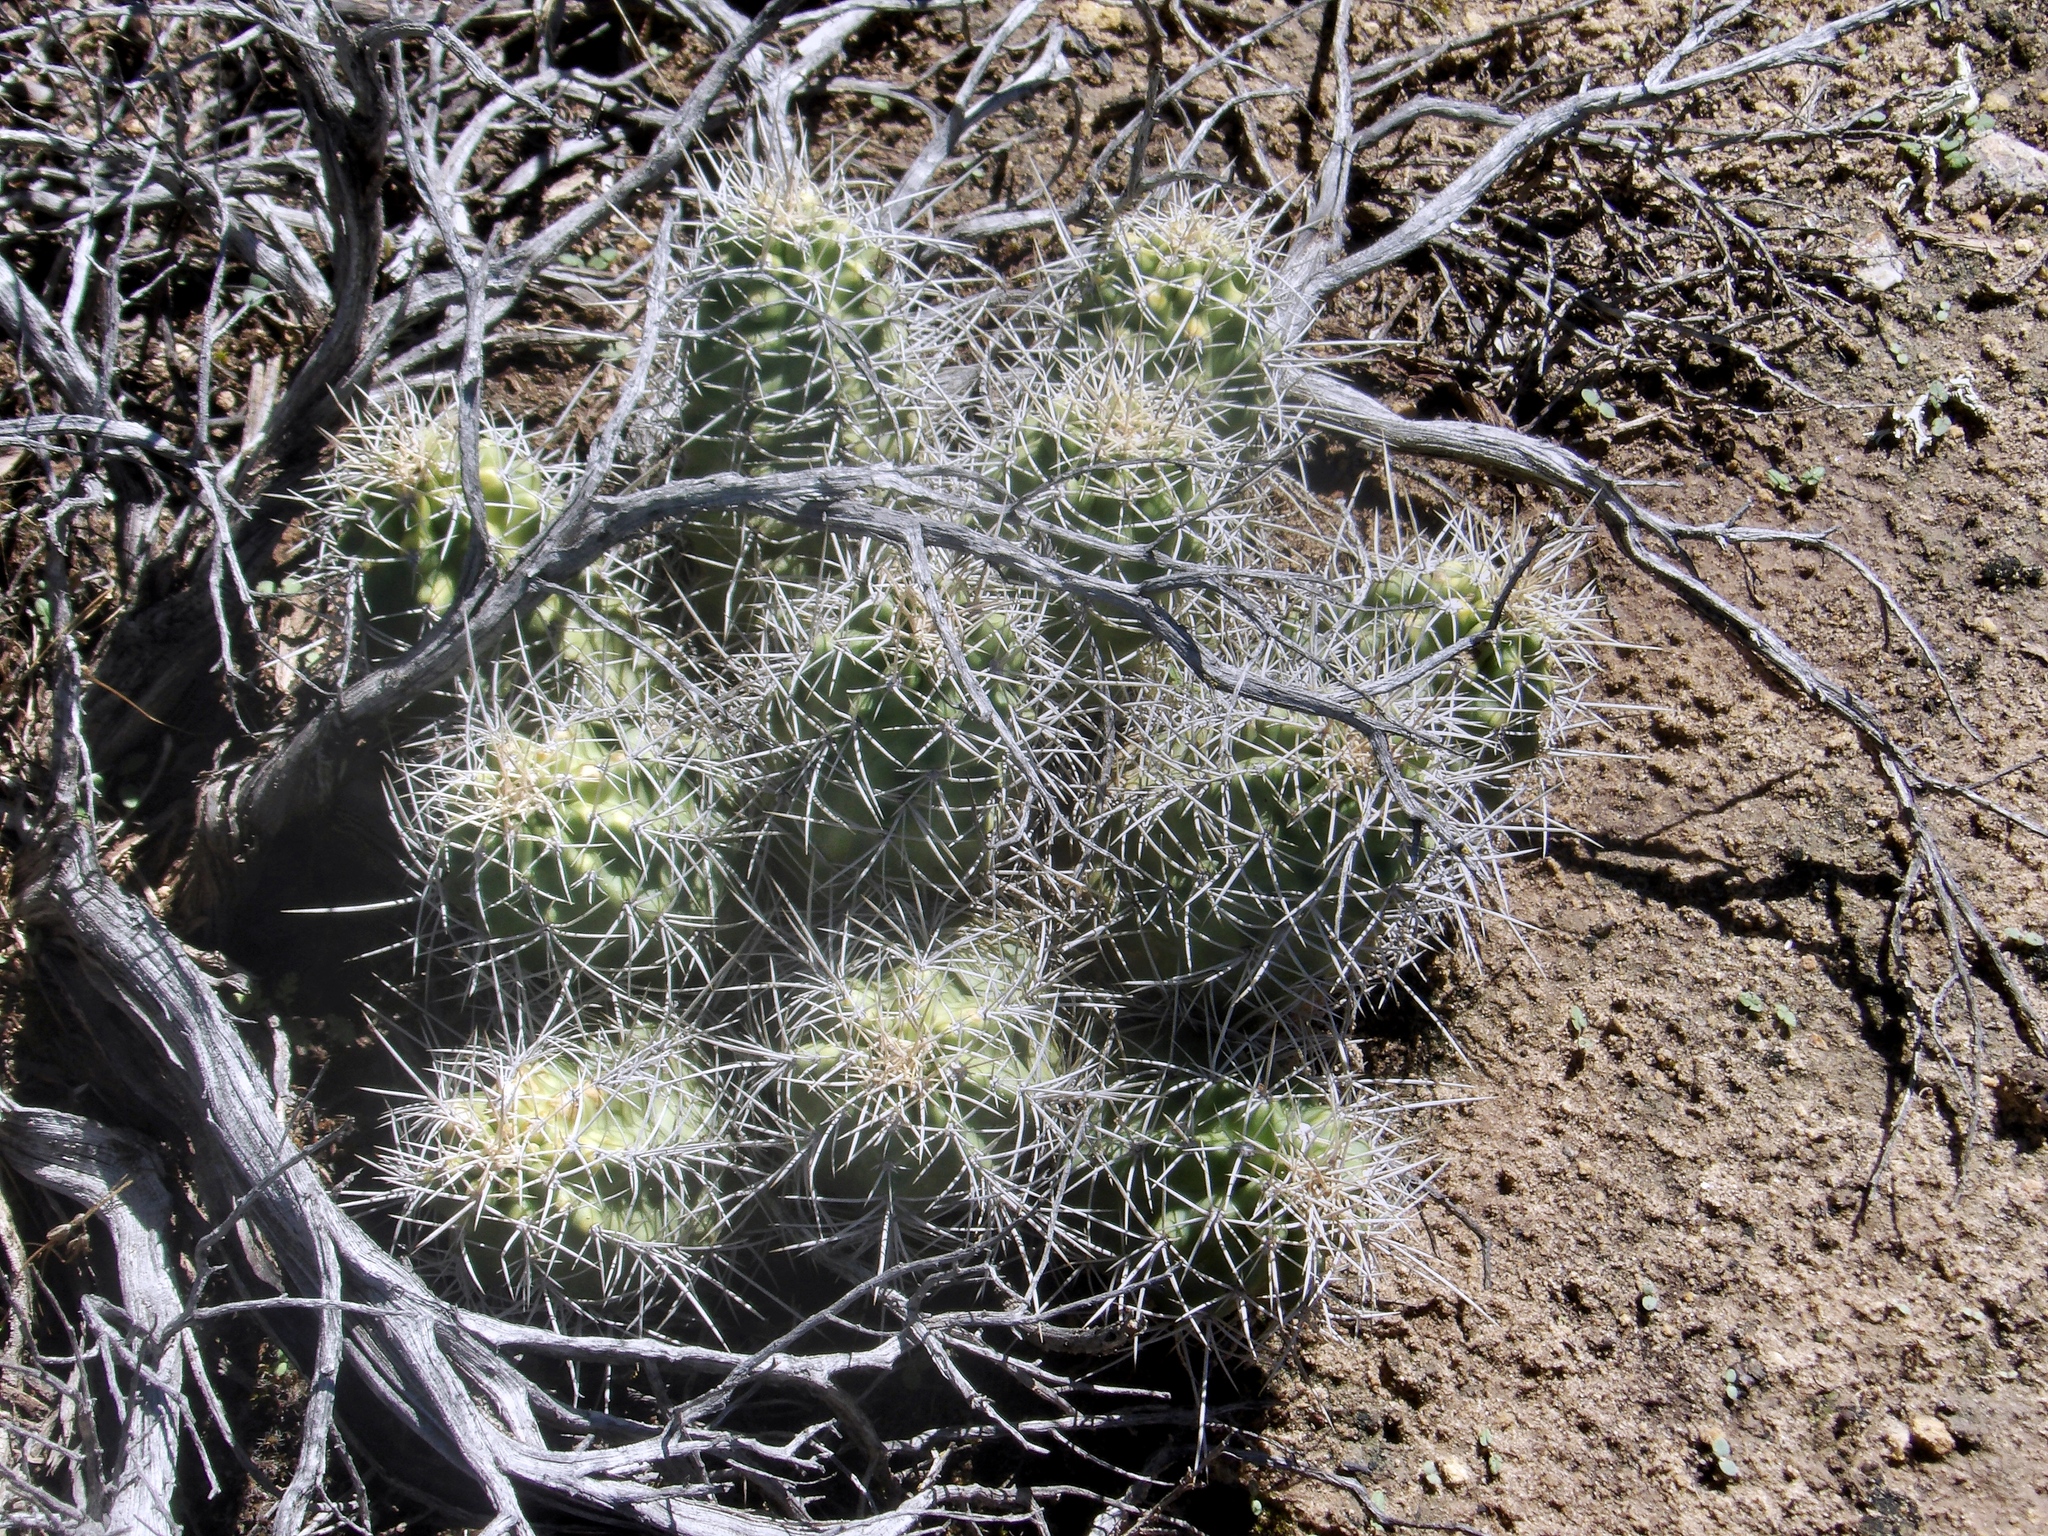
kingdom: Plantae
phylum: Tracheophyta
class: Magnoliopsida
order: Caryophyllales
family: Cactaceae
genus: Echinocereus
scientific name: Echinocereus triglochidiatus
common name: Claretcup hedgehog
